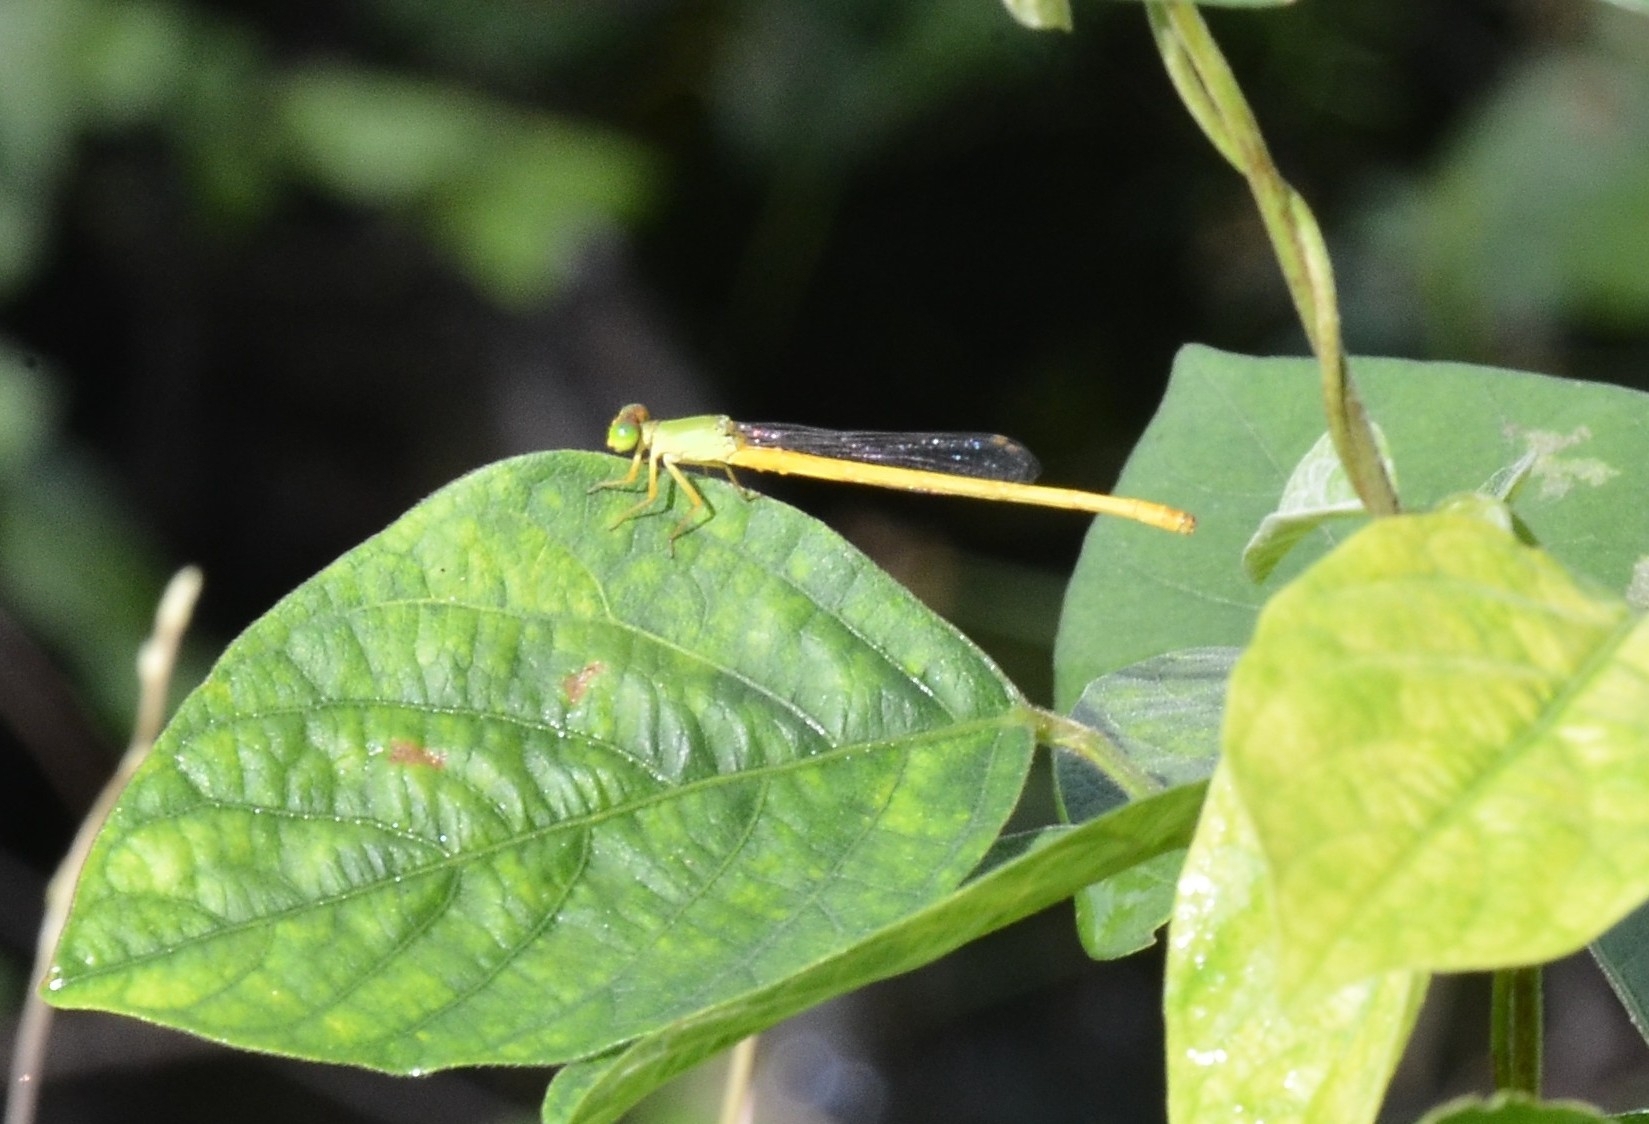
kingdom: Animalia
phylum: Arthropoda
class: Insecta
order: Odonata
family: Coenagrionidae
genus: Ceriagrion
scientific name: Ceriagrion coromandelianum
